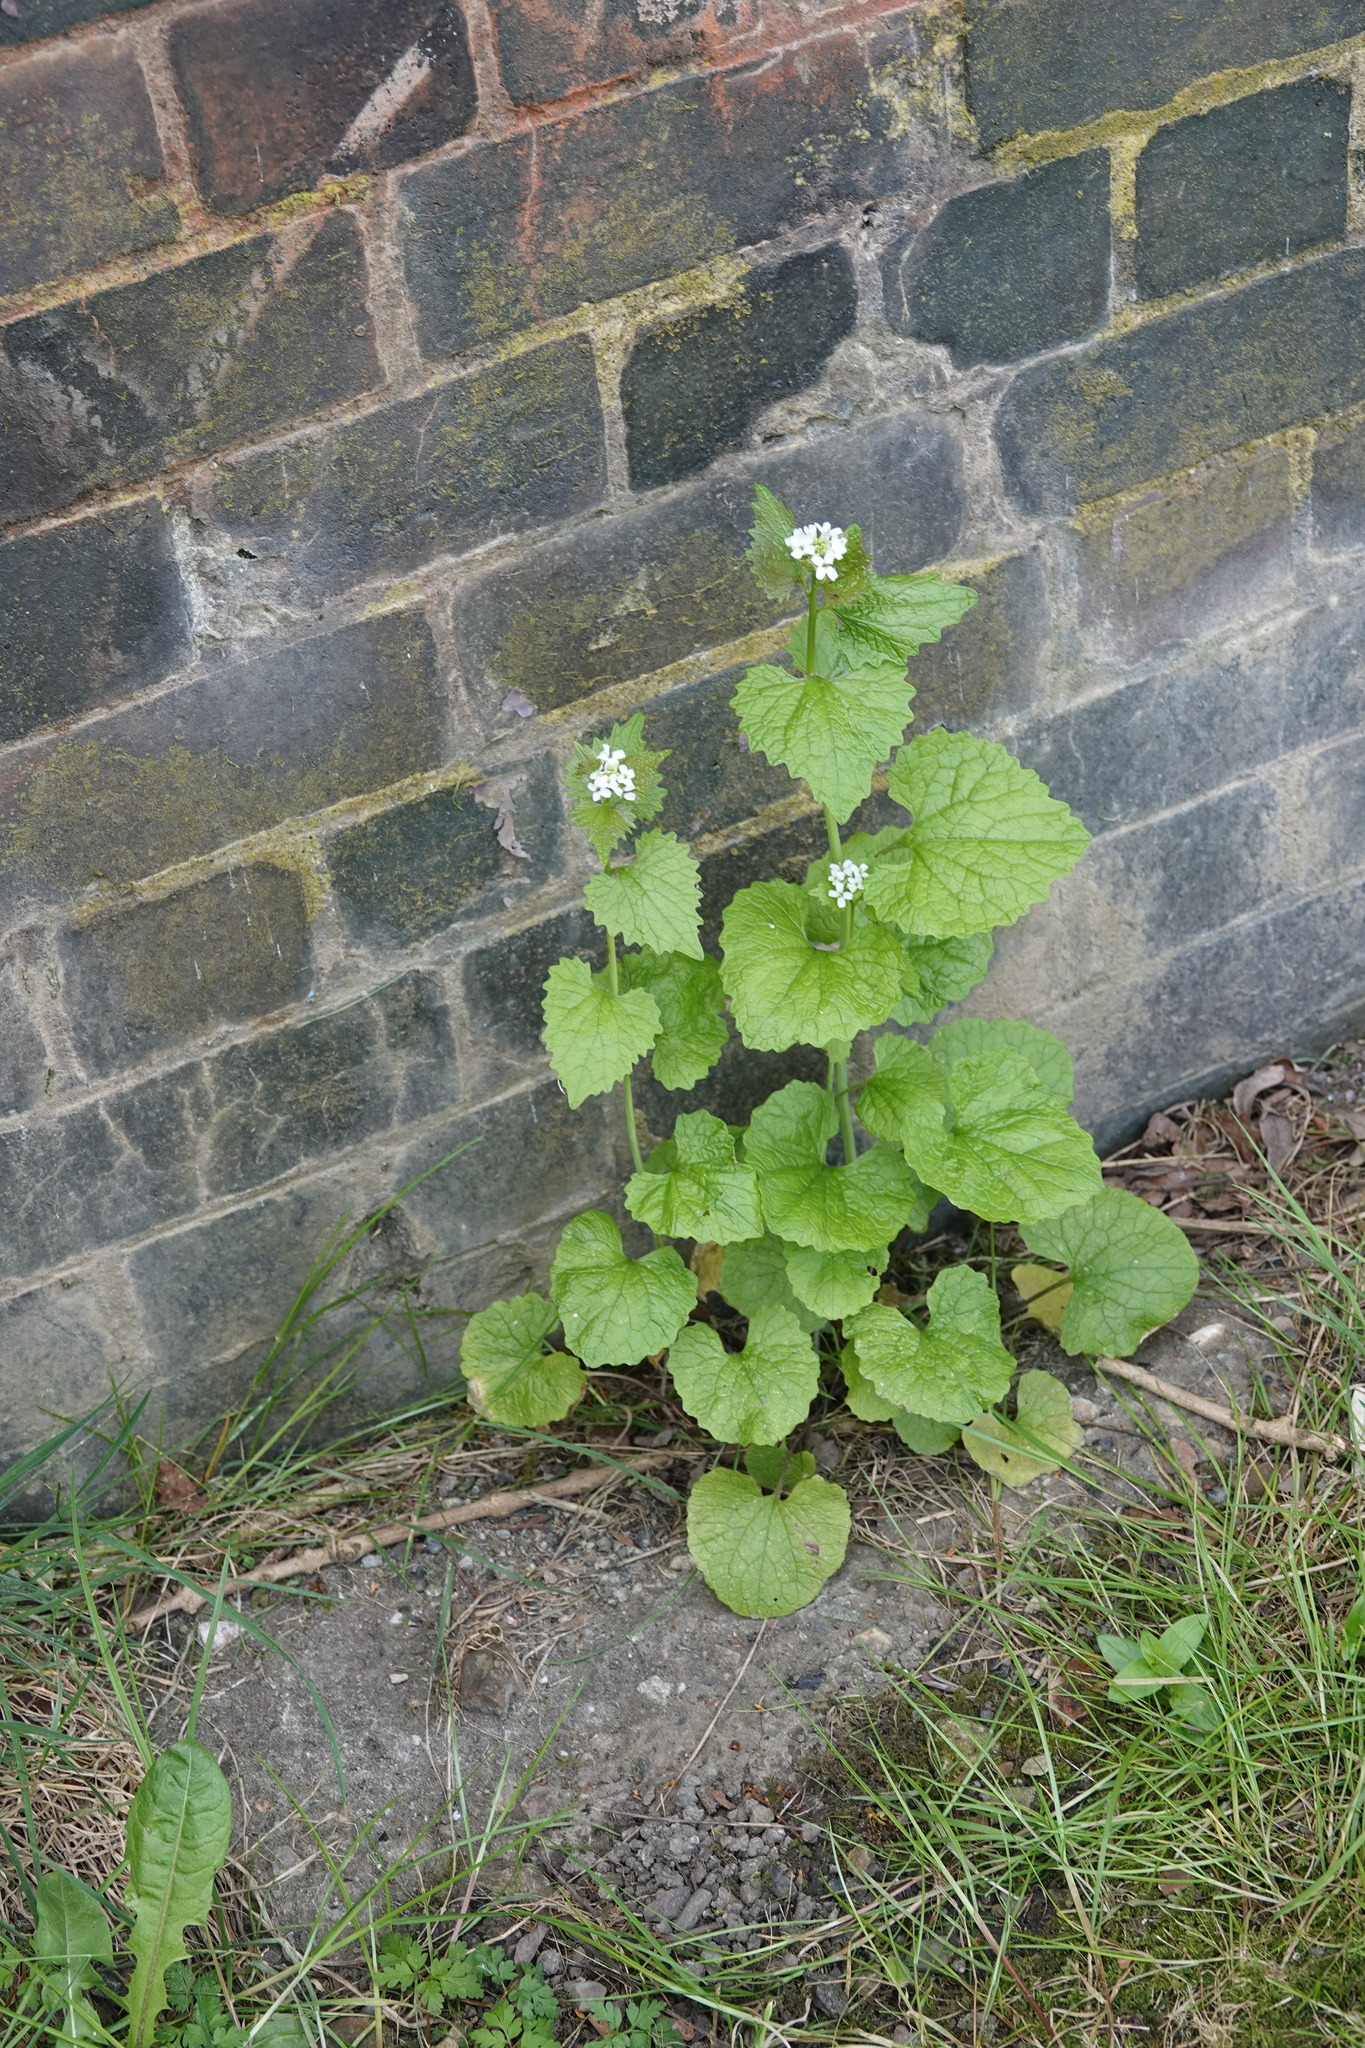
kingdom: Plantae
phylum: Tracheophyta
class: Magnoliopsida
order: Brassicales
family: Brassicaceae
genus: Alliaria
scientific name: Alliaria petiolata
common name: Garlic mustard
